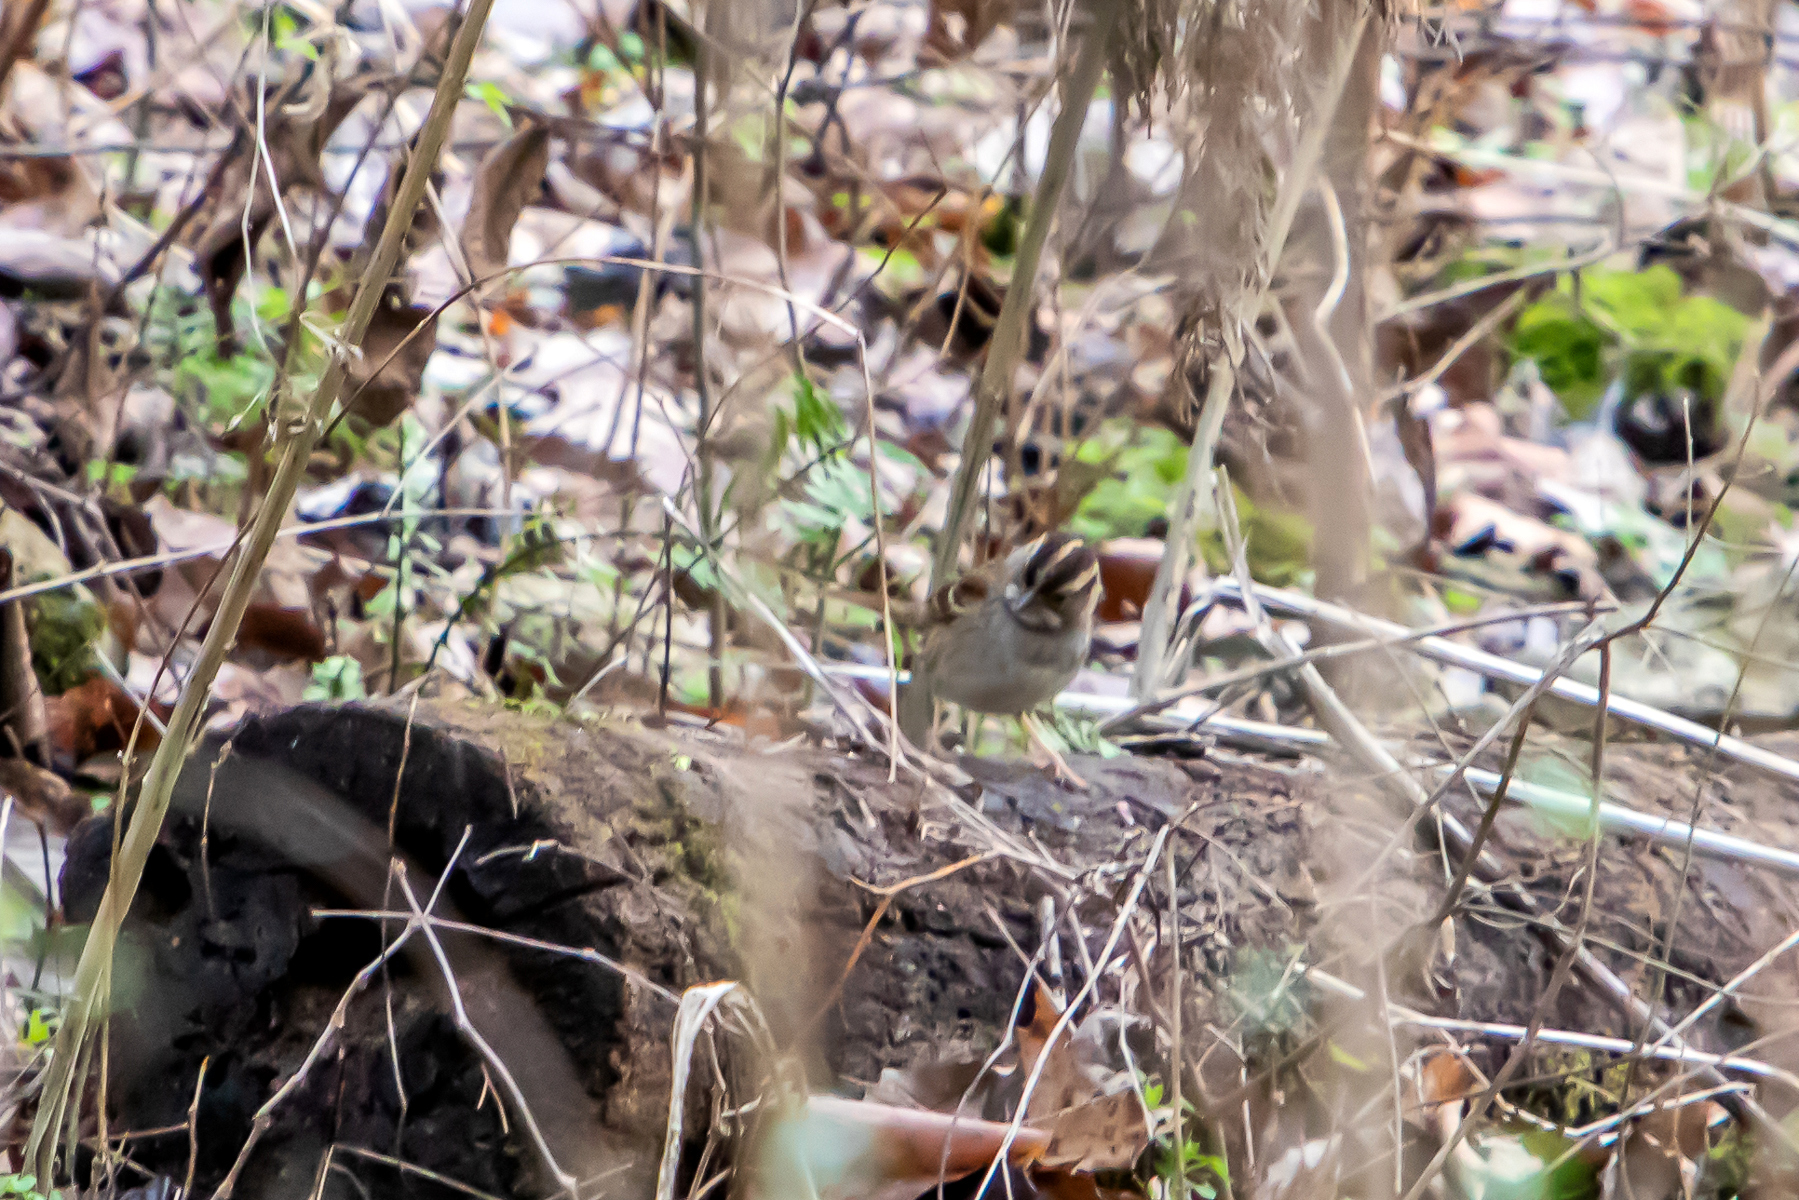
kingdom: Animalia
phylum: Chordata
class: Aves
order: Passeriformes
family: Passerellidae
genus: Zonotrichia
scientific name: Zonotrichia albicollis
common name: White-throated sparrow
